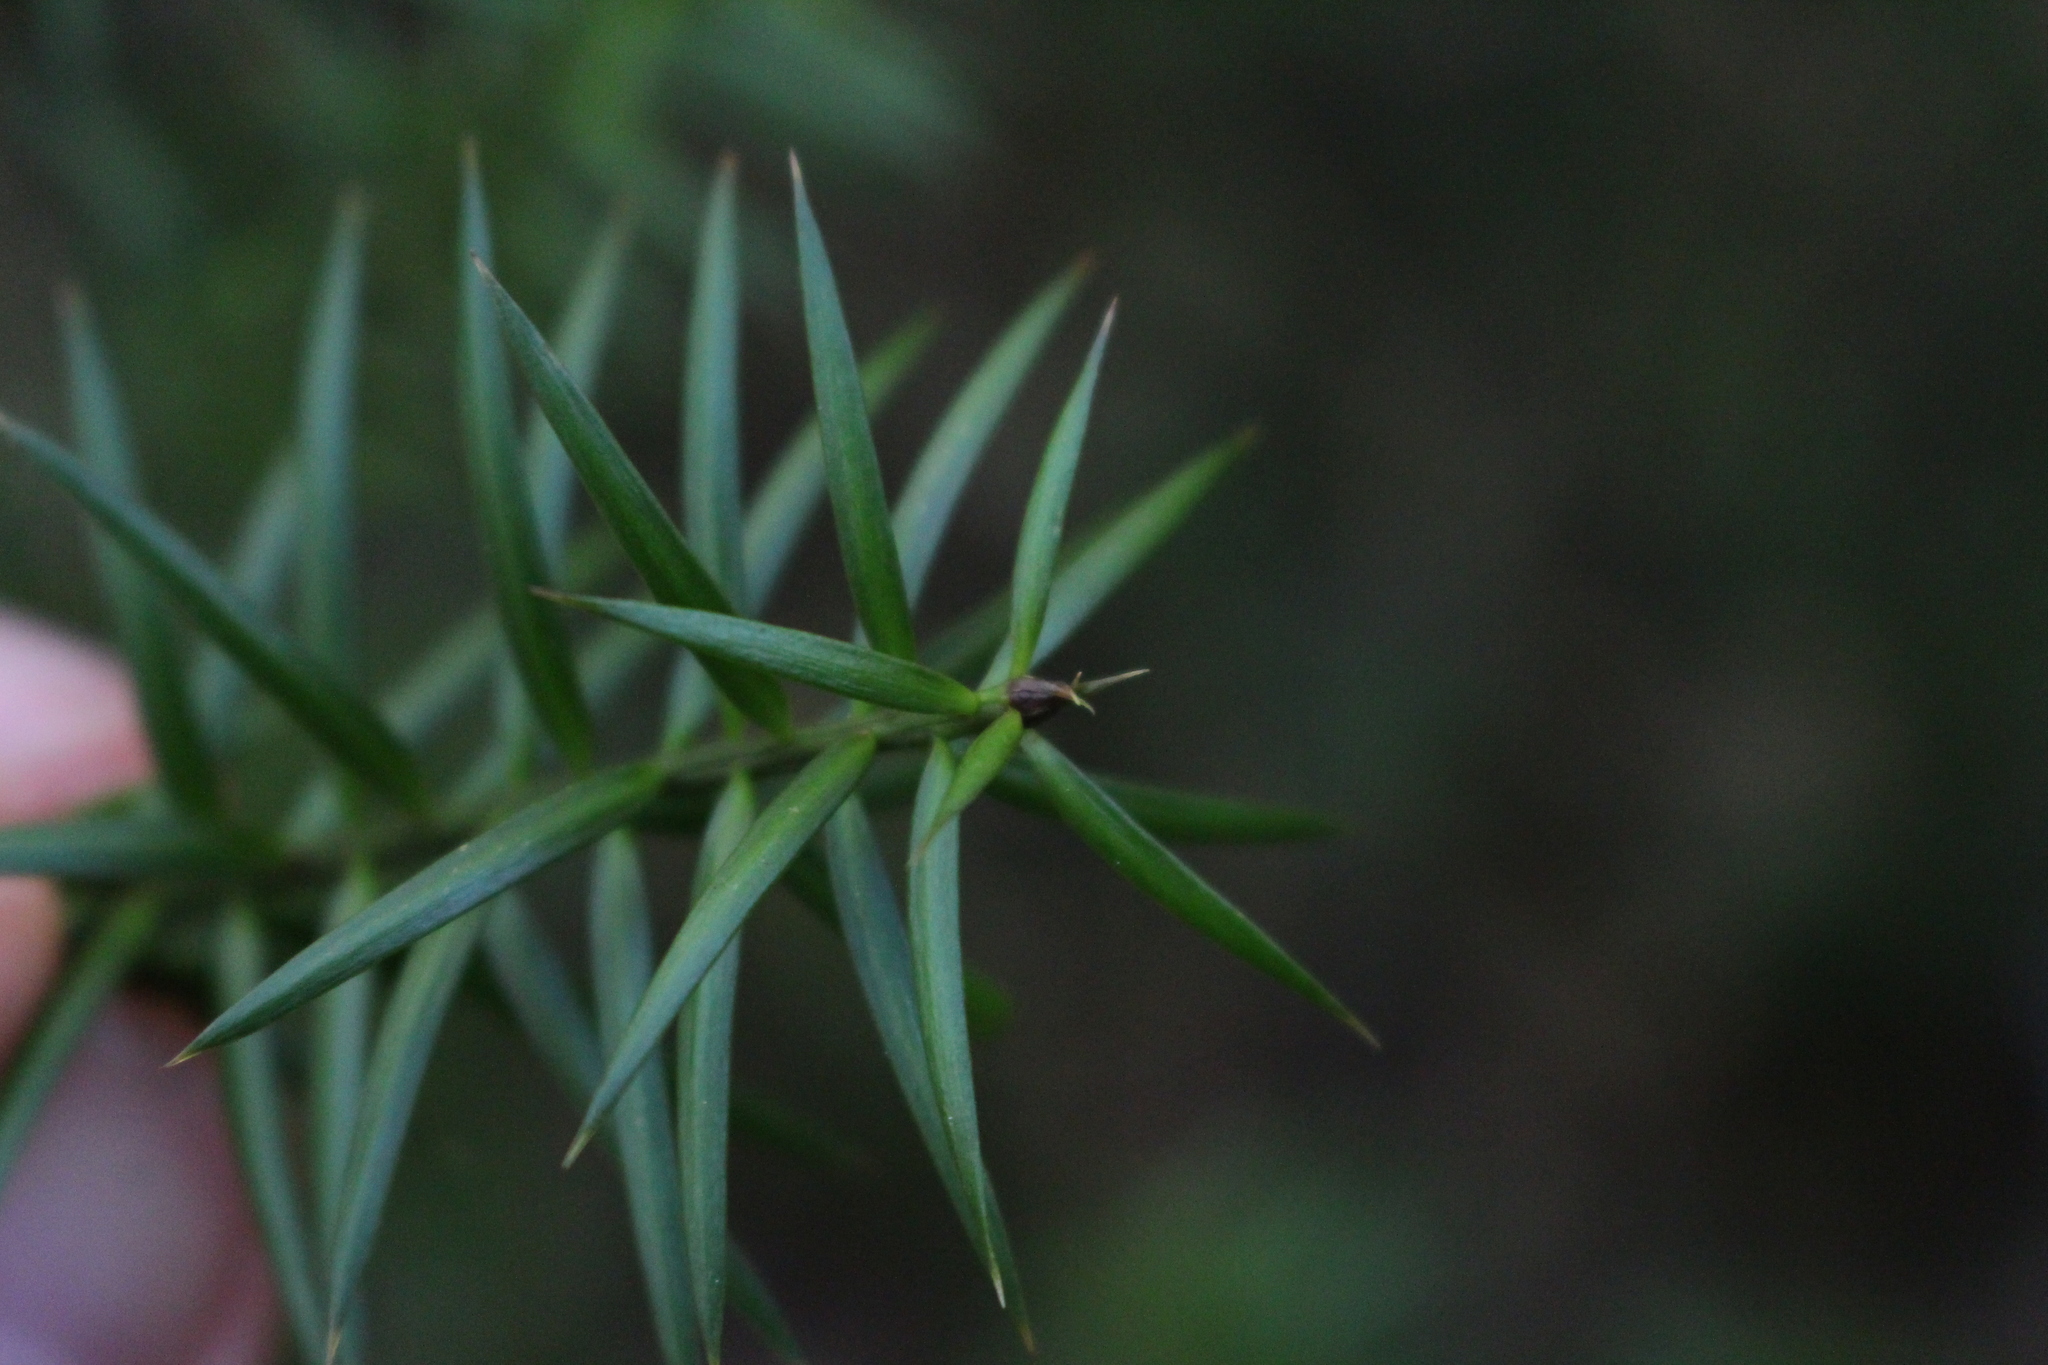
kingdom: Plantae
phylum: Tracheophyta
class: Pinopsida
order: Pinales
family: Podocarpaceae
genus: Podocarpus
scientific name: Podocarpus totara
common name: Totara
